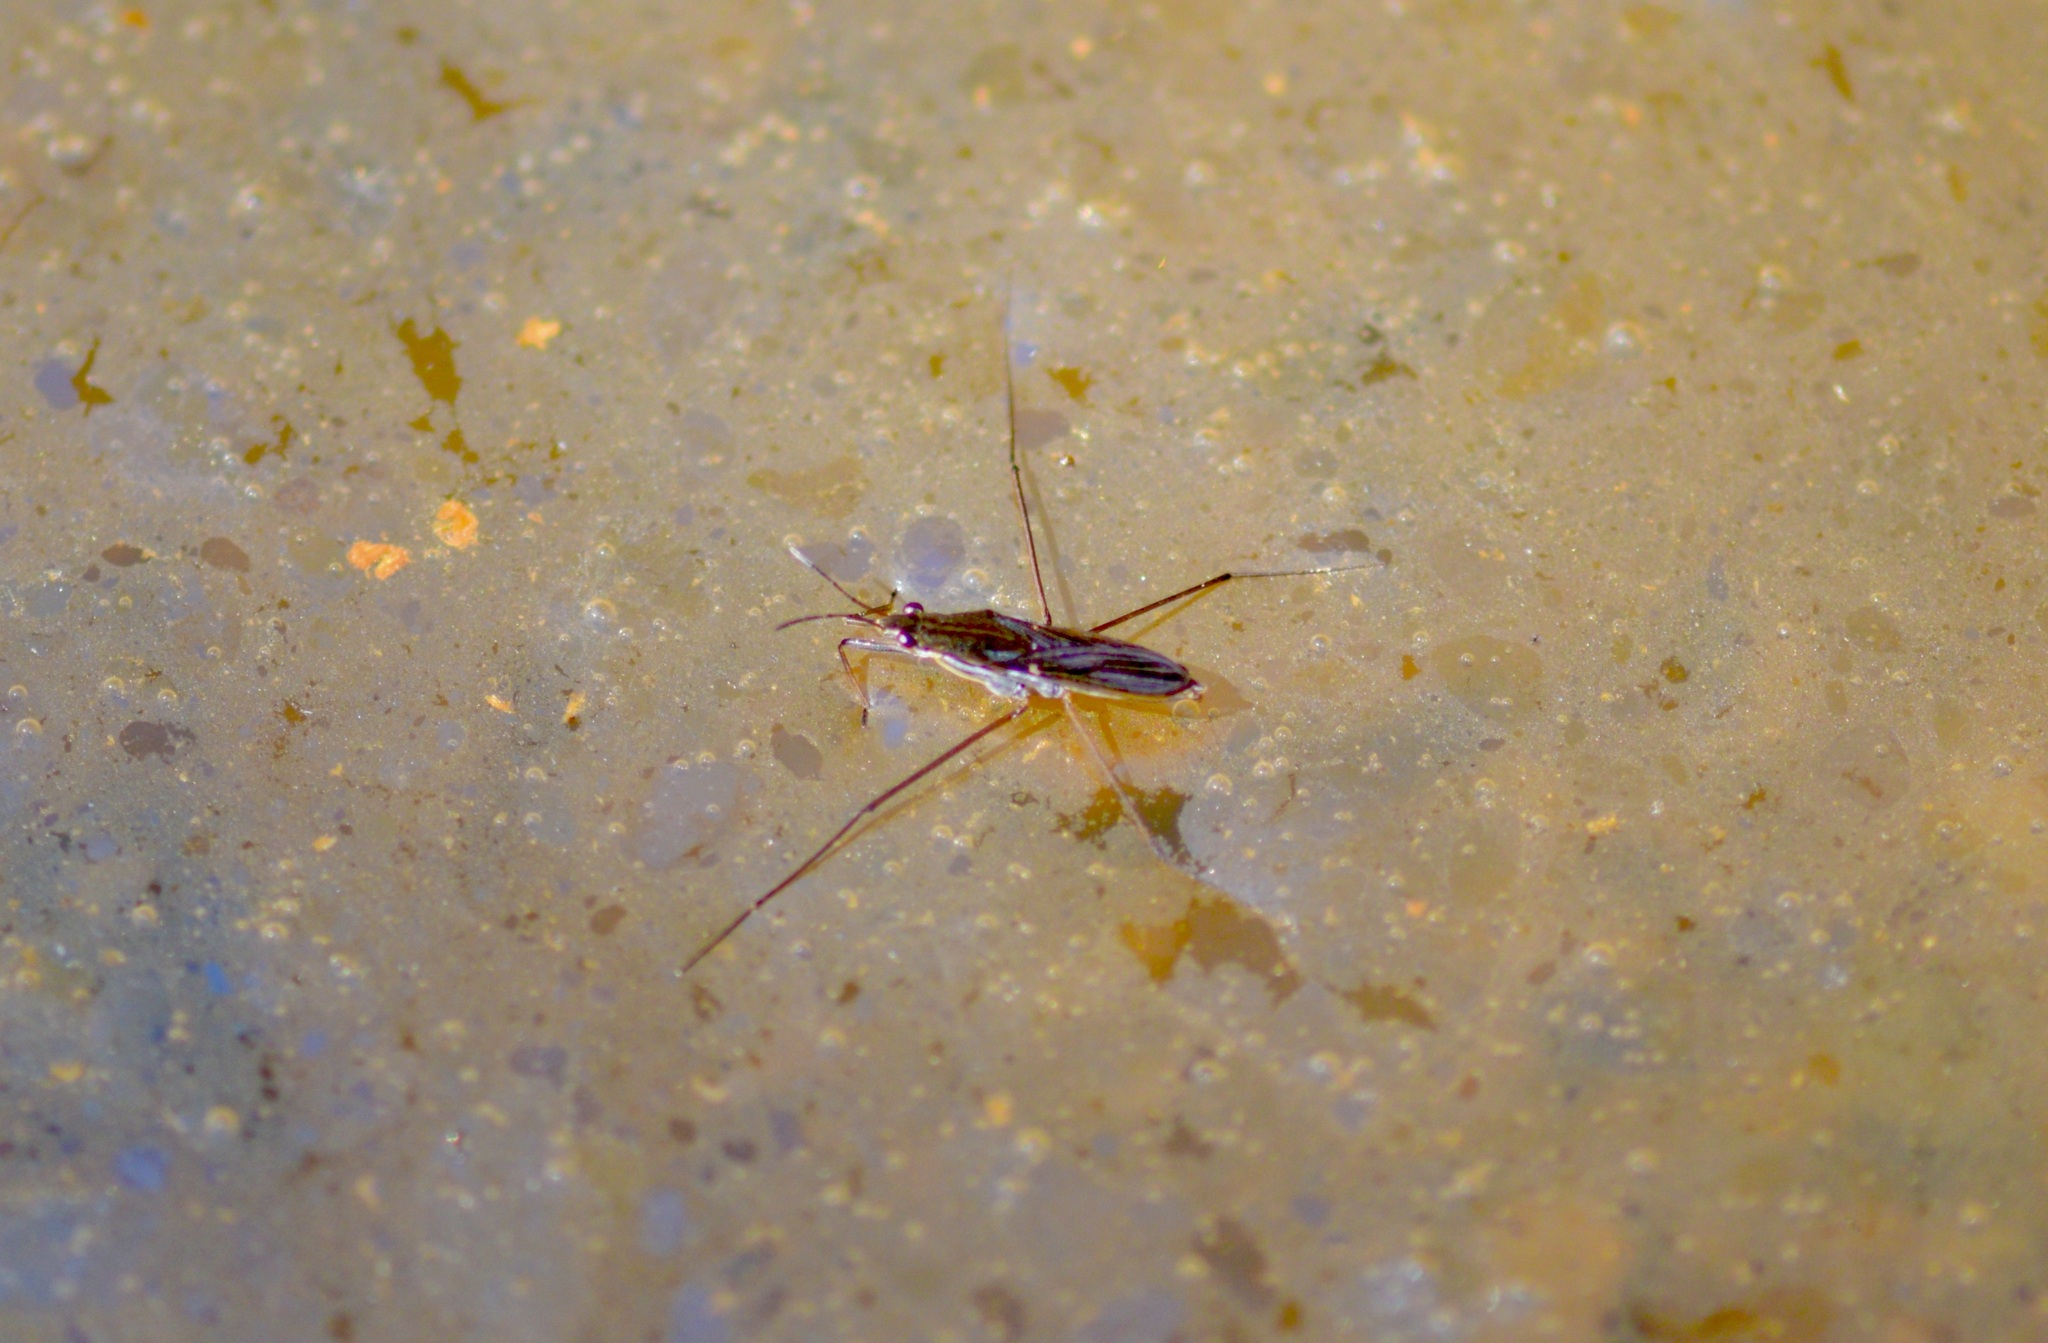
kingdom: Animalia
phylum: Arthropoda
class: Insecta
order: Hemiptera
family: Gerridae
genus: Gerris
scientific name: Gerris
